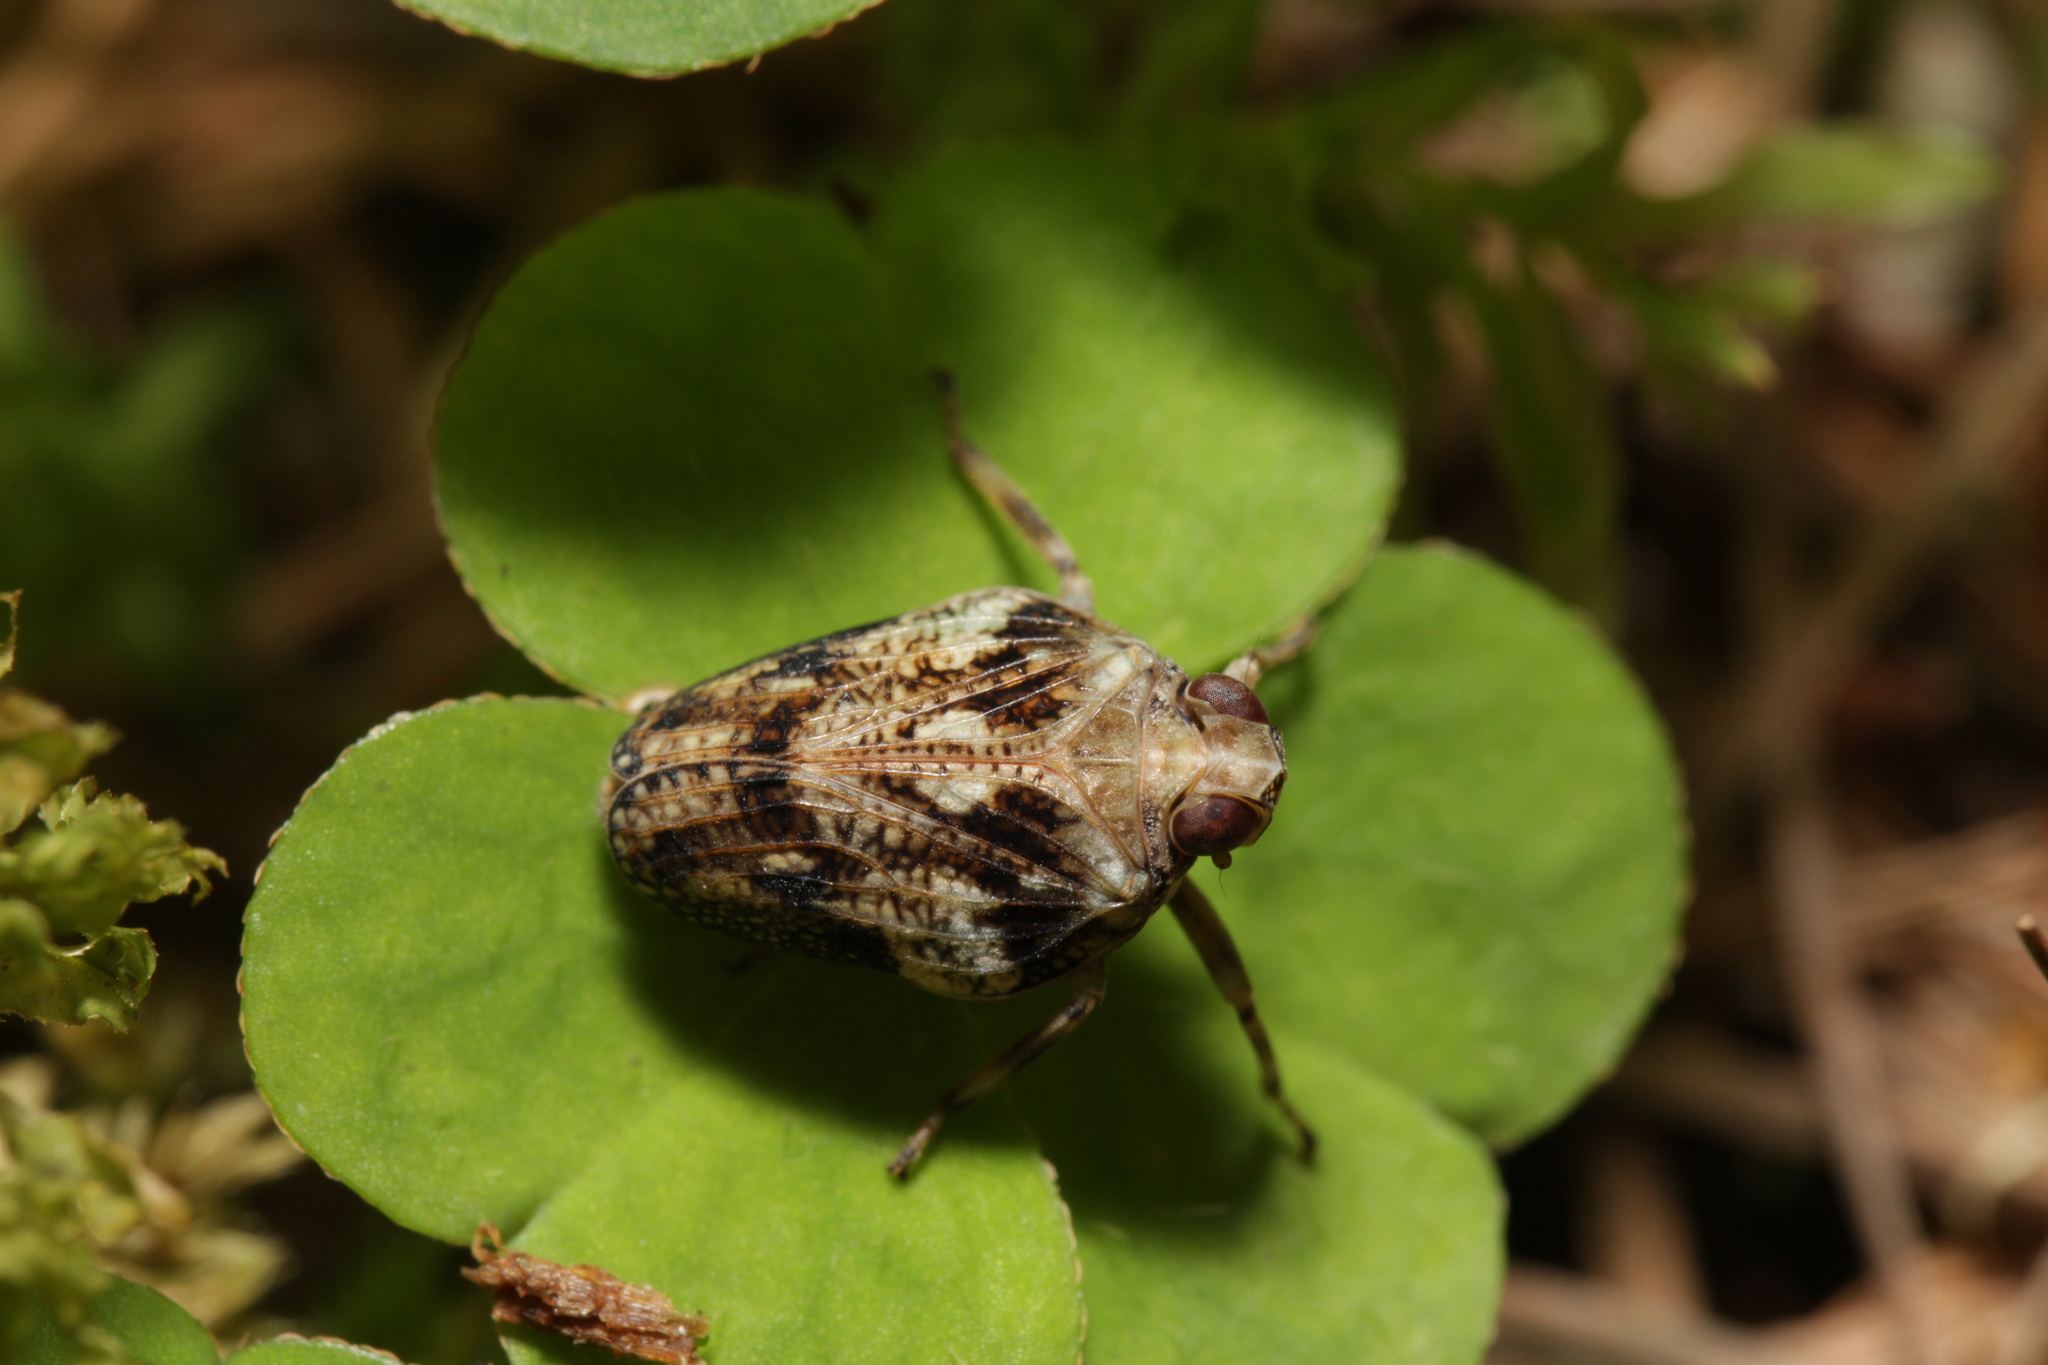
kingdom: Animalia
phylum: Arthropoda
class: Insecta
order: Hemiptera
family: Issidae
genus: Issus
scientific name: Issus coleoptratus
